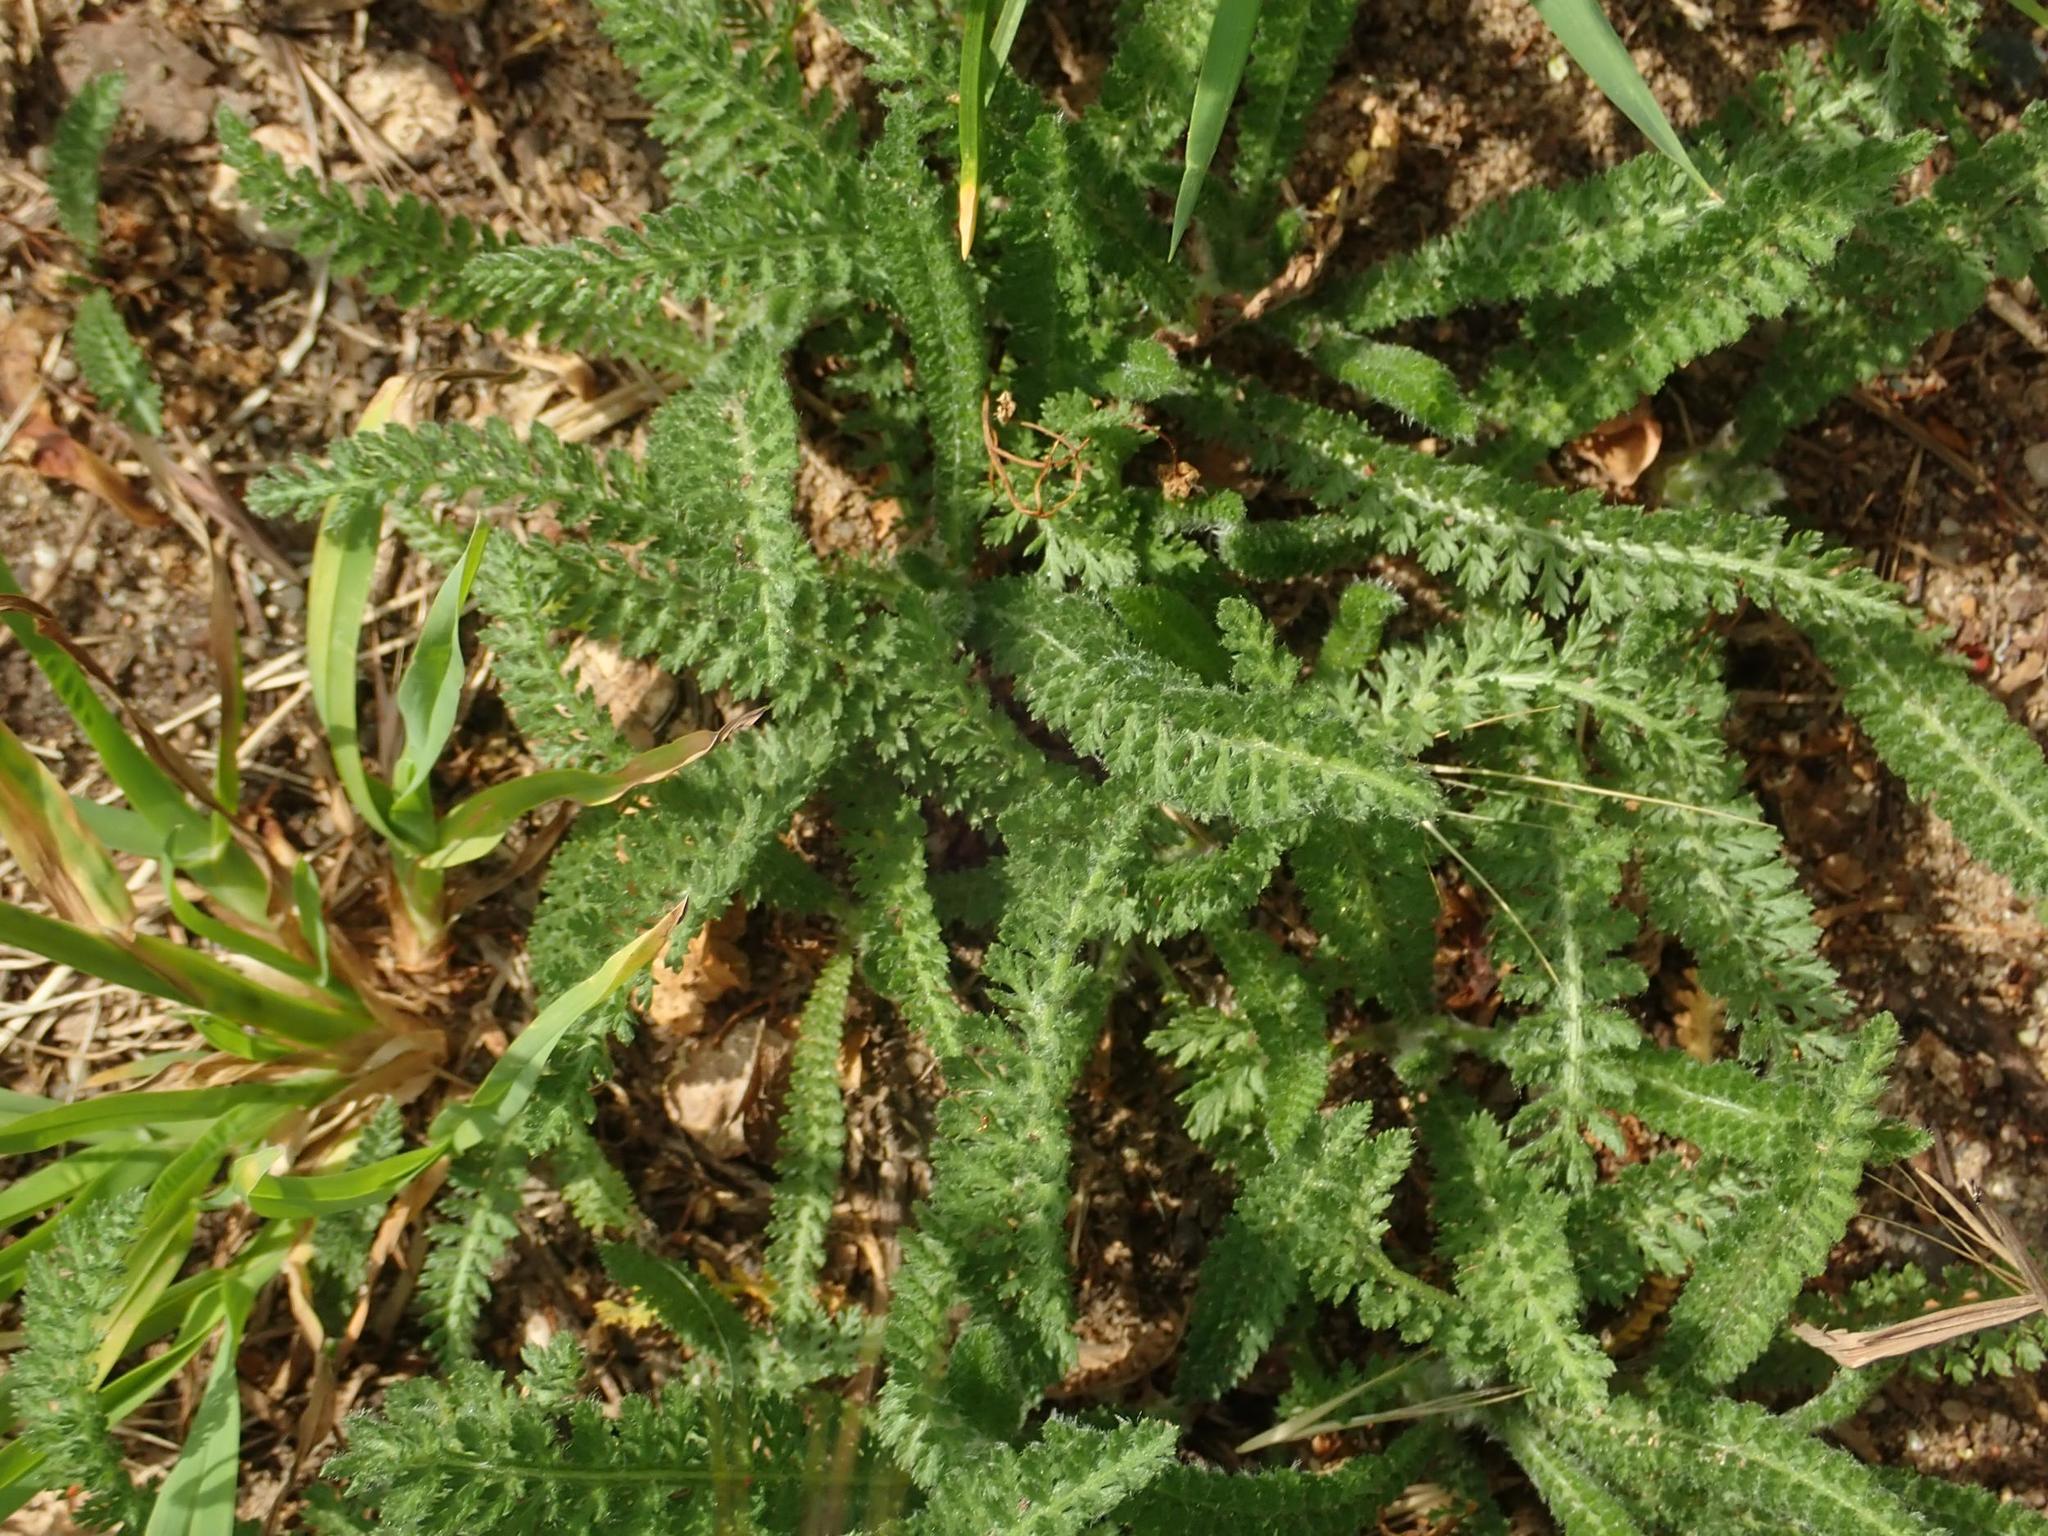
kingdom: Plantae
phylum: Tracheophyta
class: Magnoliopsida
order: Asterales
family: Asteraceae
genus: Achillea
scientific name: Achillea millefolium
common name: Yarrow
